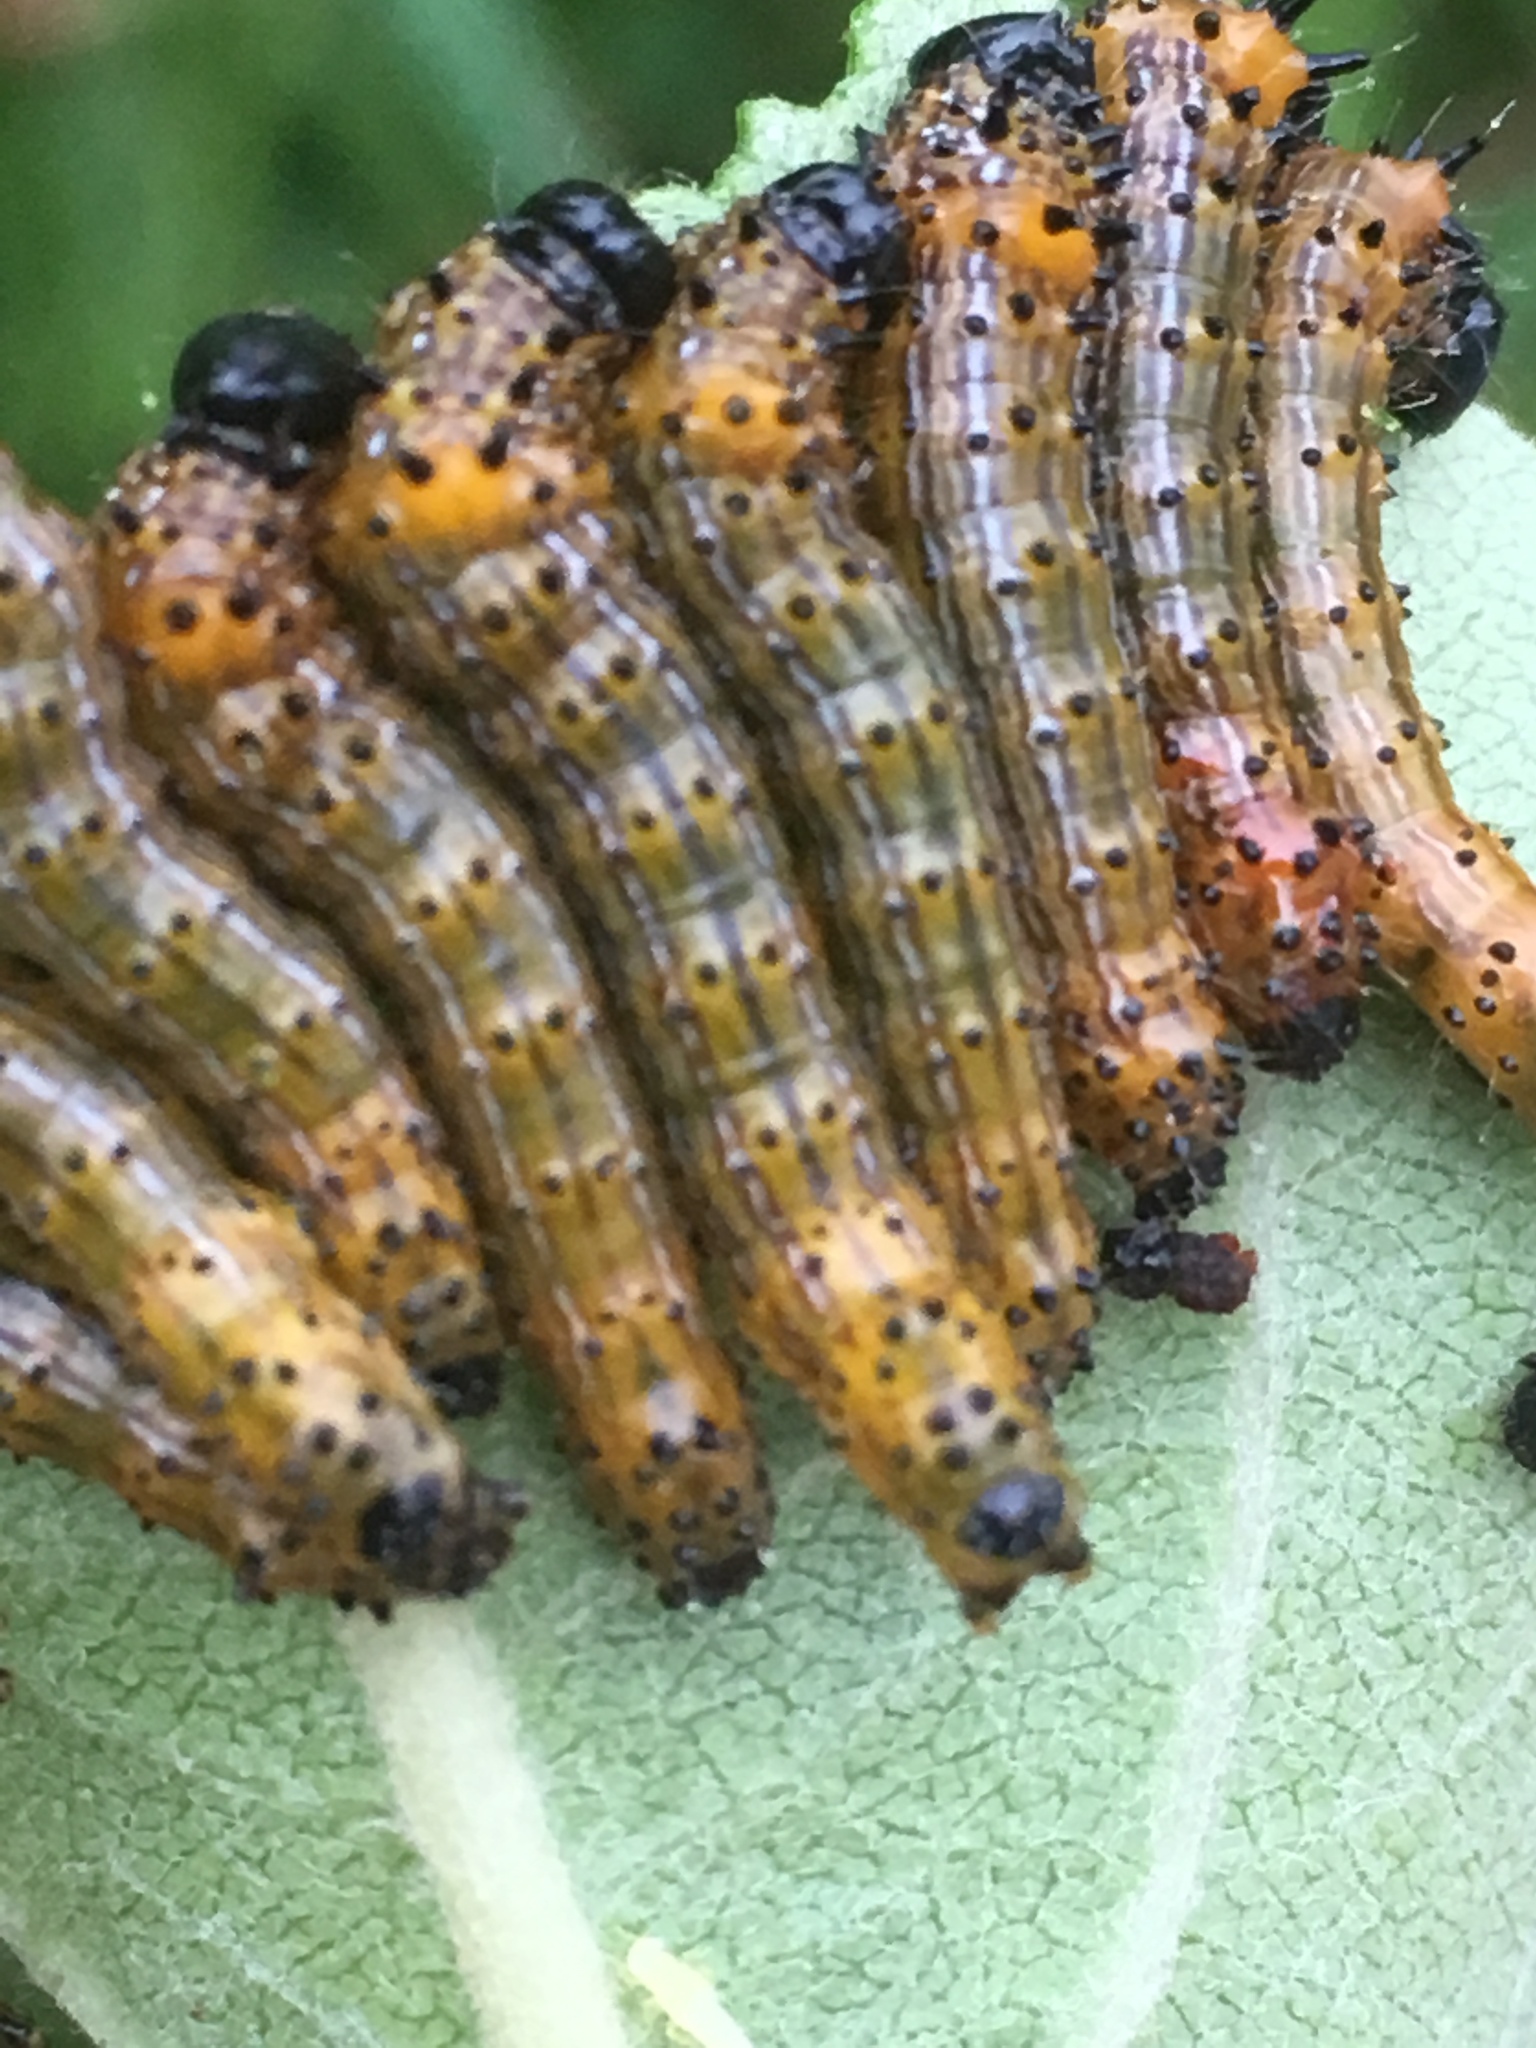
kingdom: Animalia
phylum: Arthropoda
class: Insecta
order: Lepidoptera
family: Notodontidae
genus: Schizura
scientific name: Schizura
